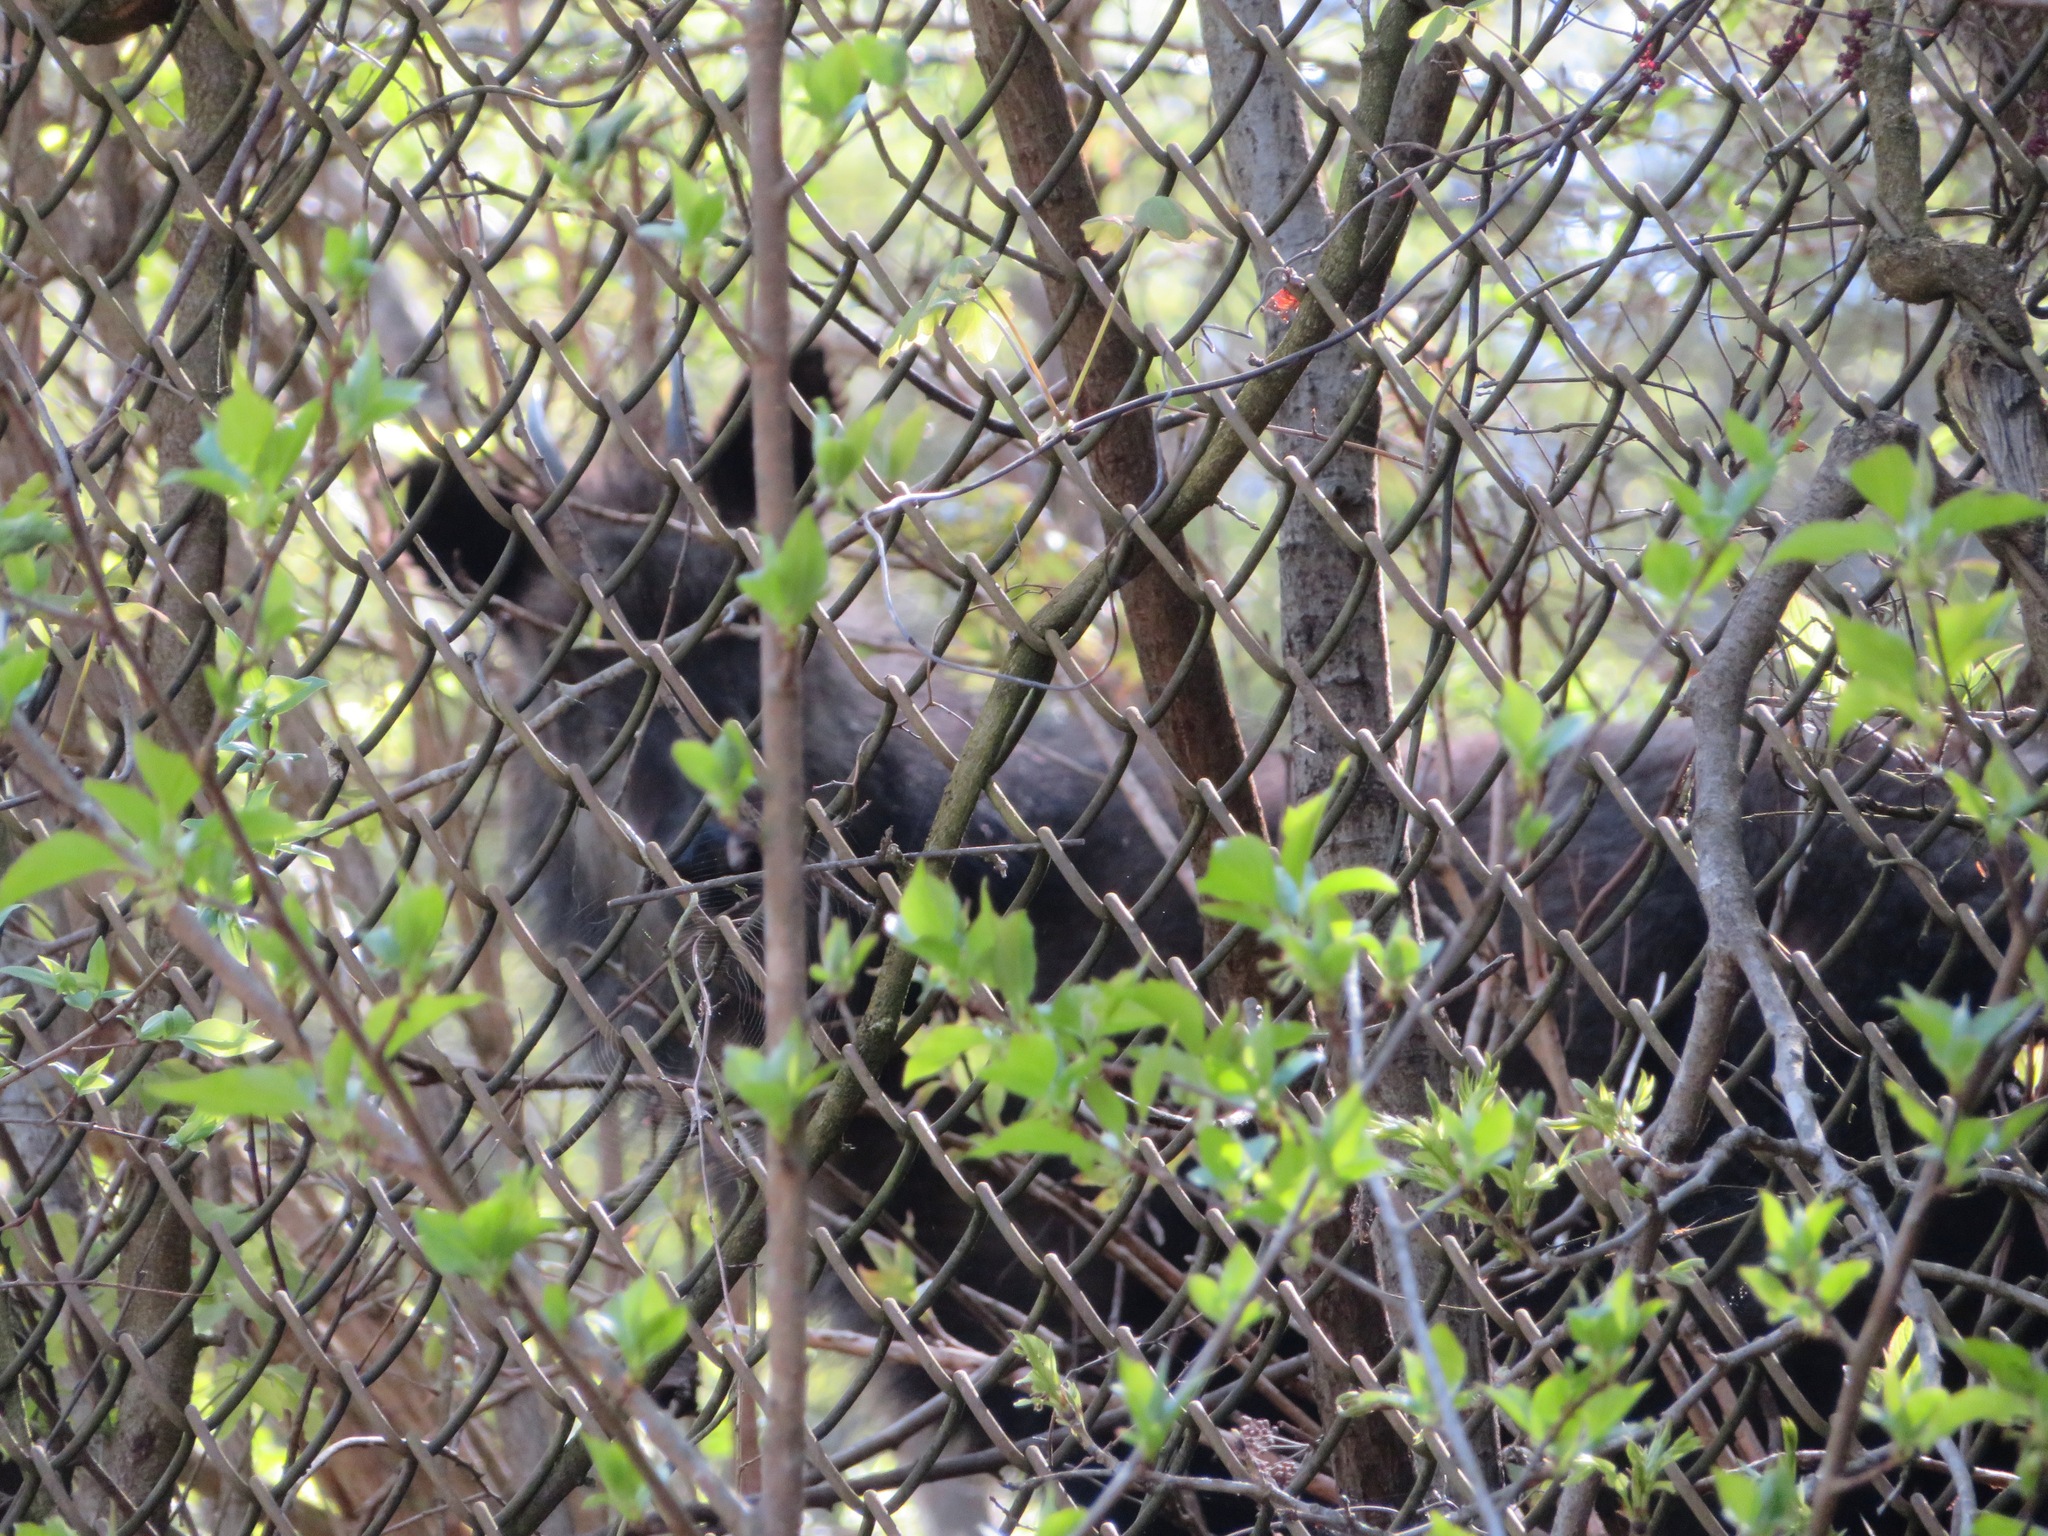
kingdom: Animalia
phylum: Chordata
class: Mammalia
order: Artiodactyla
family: Bovidae
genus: Capricornis
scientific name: Capricornis crispus
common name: Japanese serow
